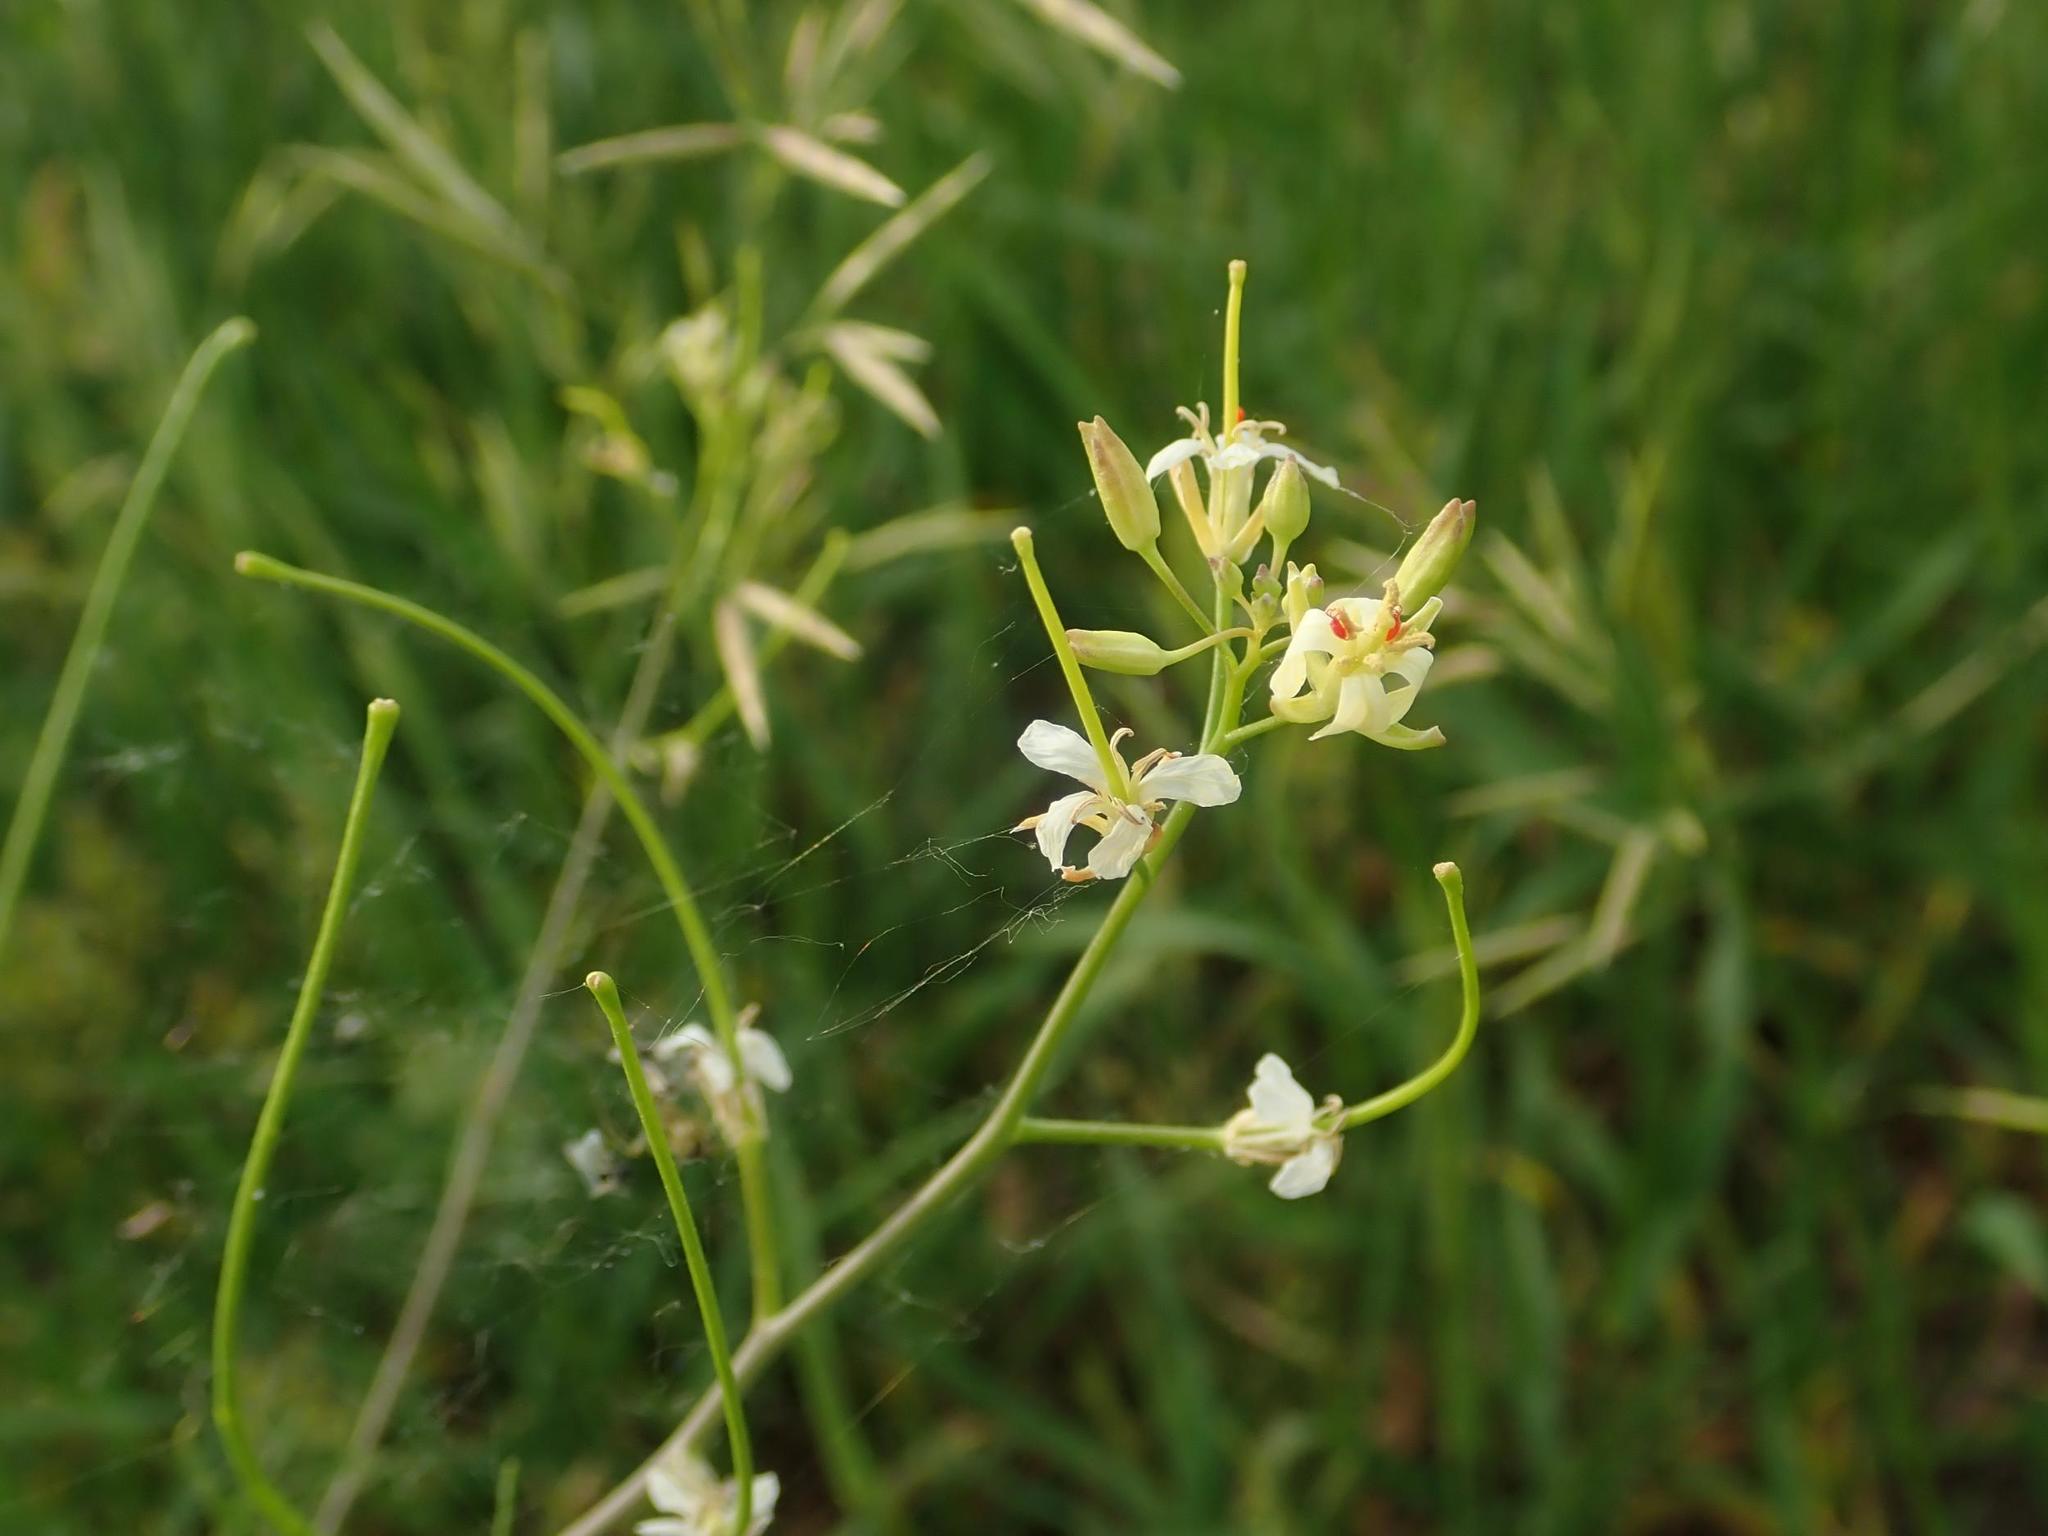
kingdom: Plantae
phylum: Tracheophyta
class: Magnoliopsida
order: Brassicales
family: Brassicaceae
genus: Sisymbrium
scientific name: Sisymbrium altissimum
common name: Tall rocket
